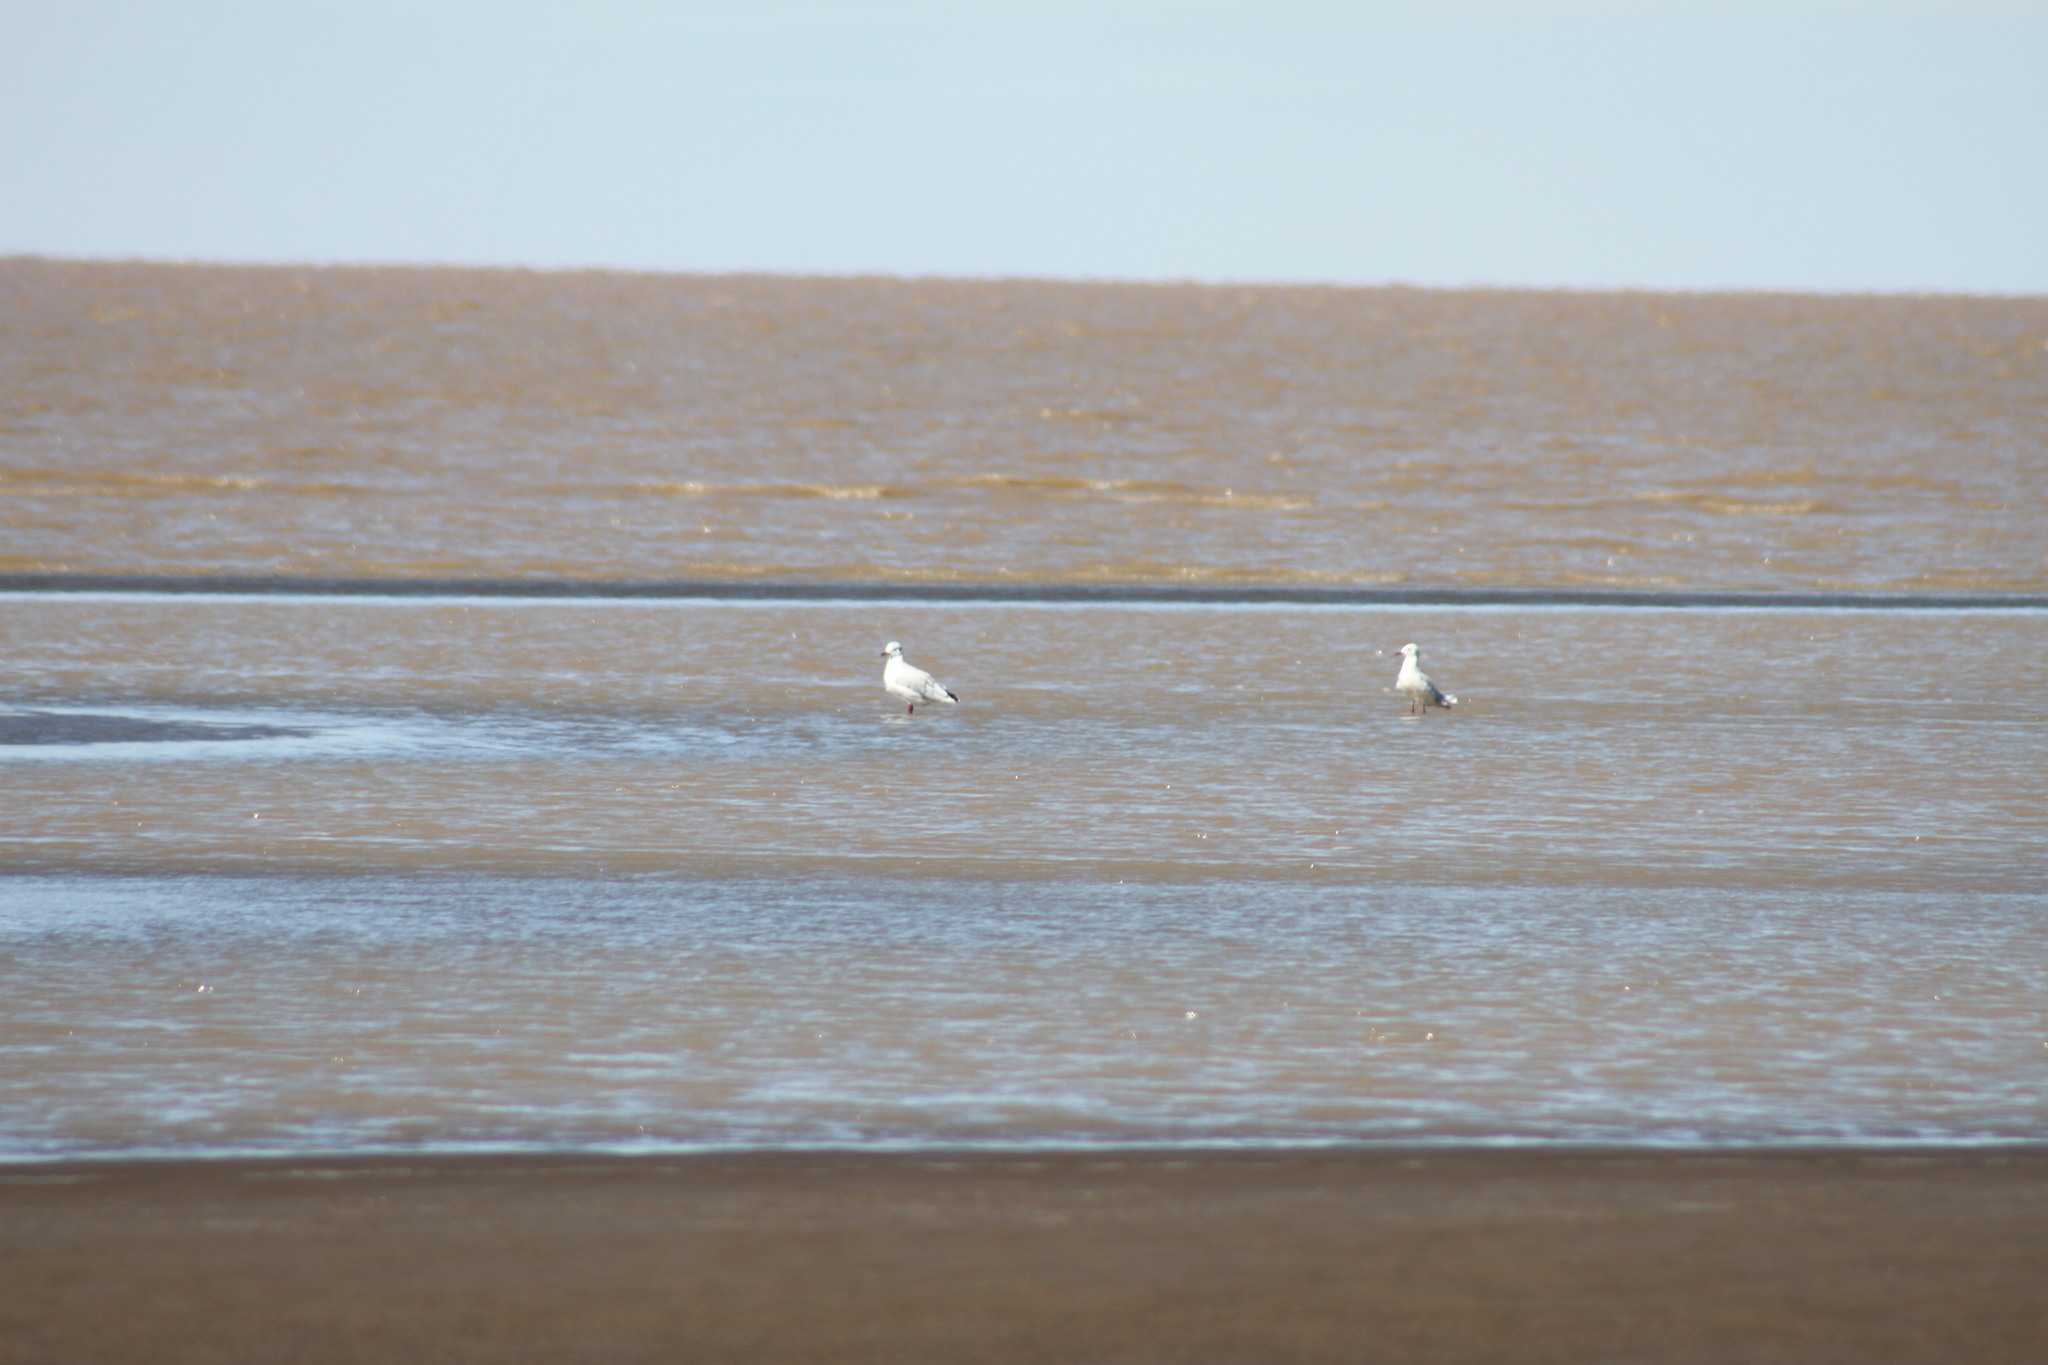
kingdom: Animalia
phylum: Chordata
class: Aves
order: Charadriiformes
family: Laridae
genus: Chroicocephalus
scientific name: Chroicocephalus maculipennis
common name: Brown-hooded gull
